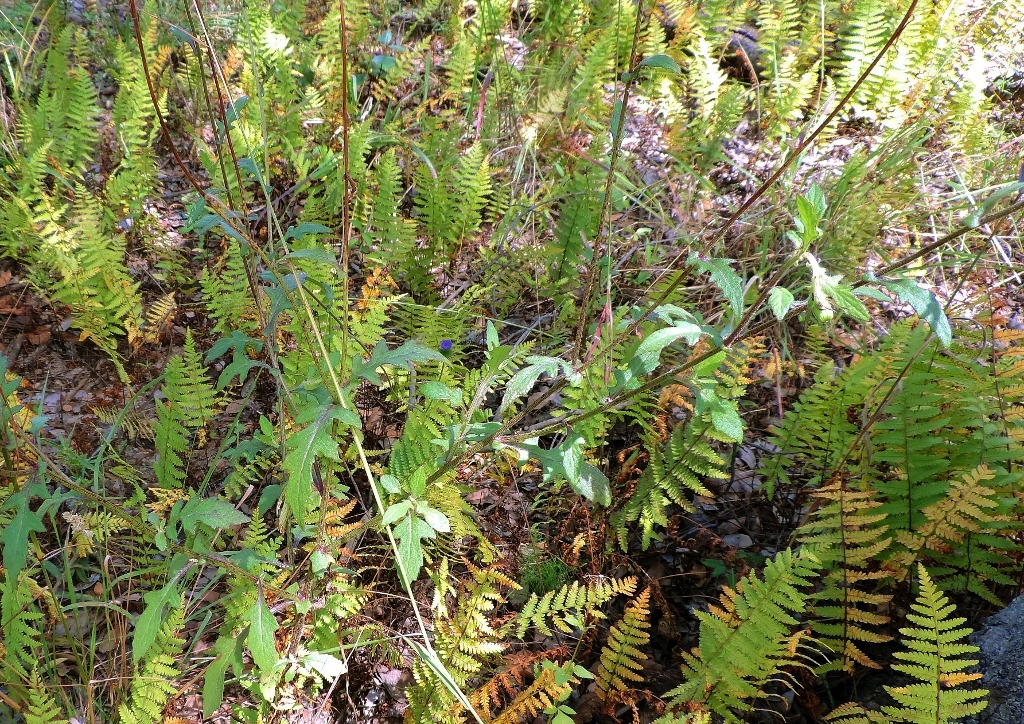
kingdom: Plantae
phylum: Tracheophyta
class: Magnoliopsida
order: Asterales
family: Asteraceae
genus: Crassocephalum
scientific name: Crassocephalum rubens
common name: Yoruban bologi
